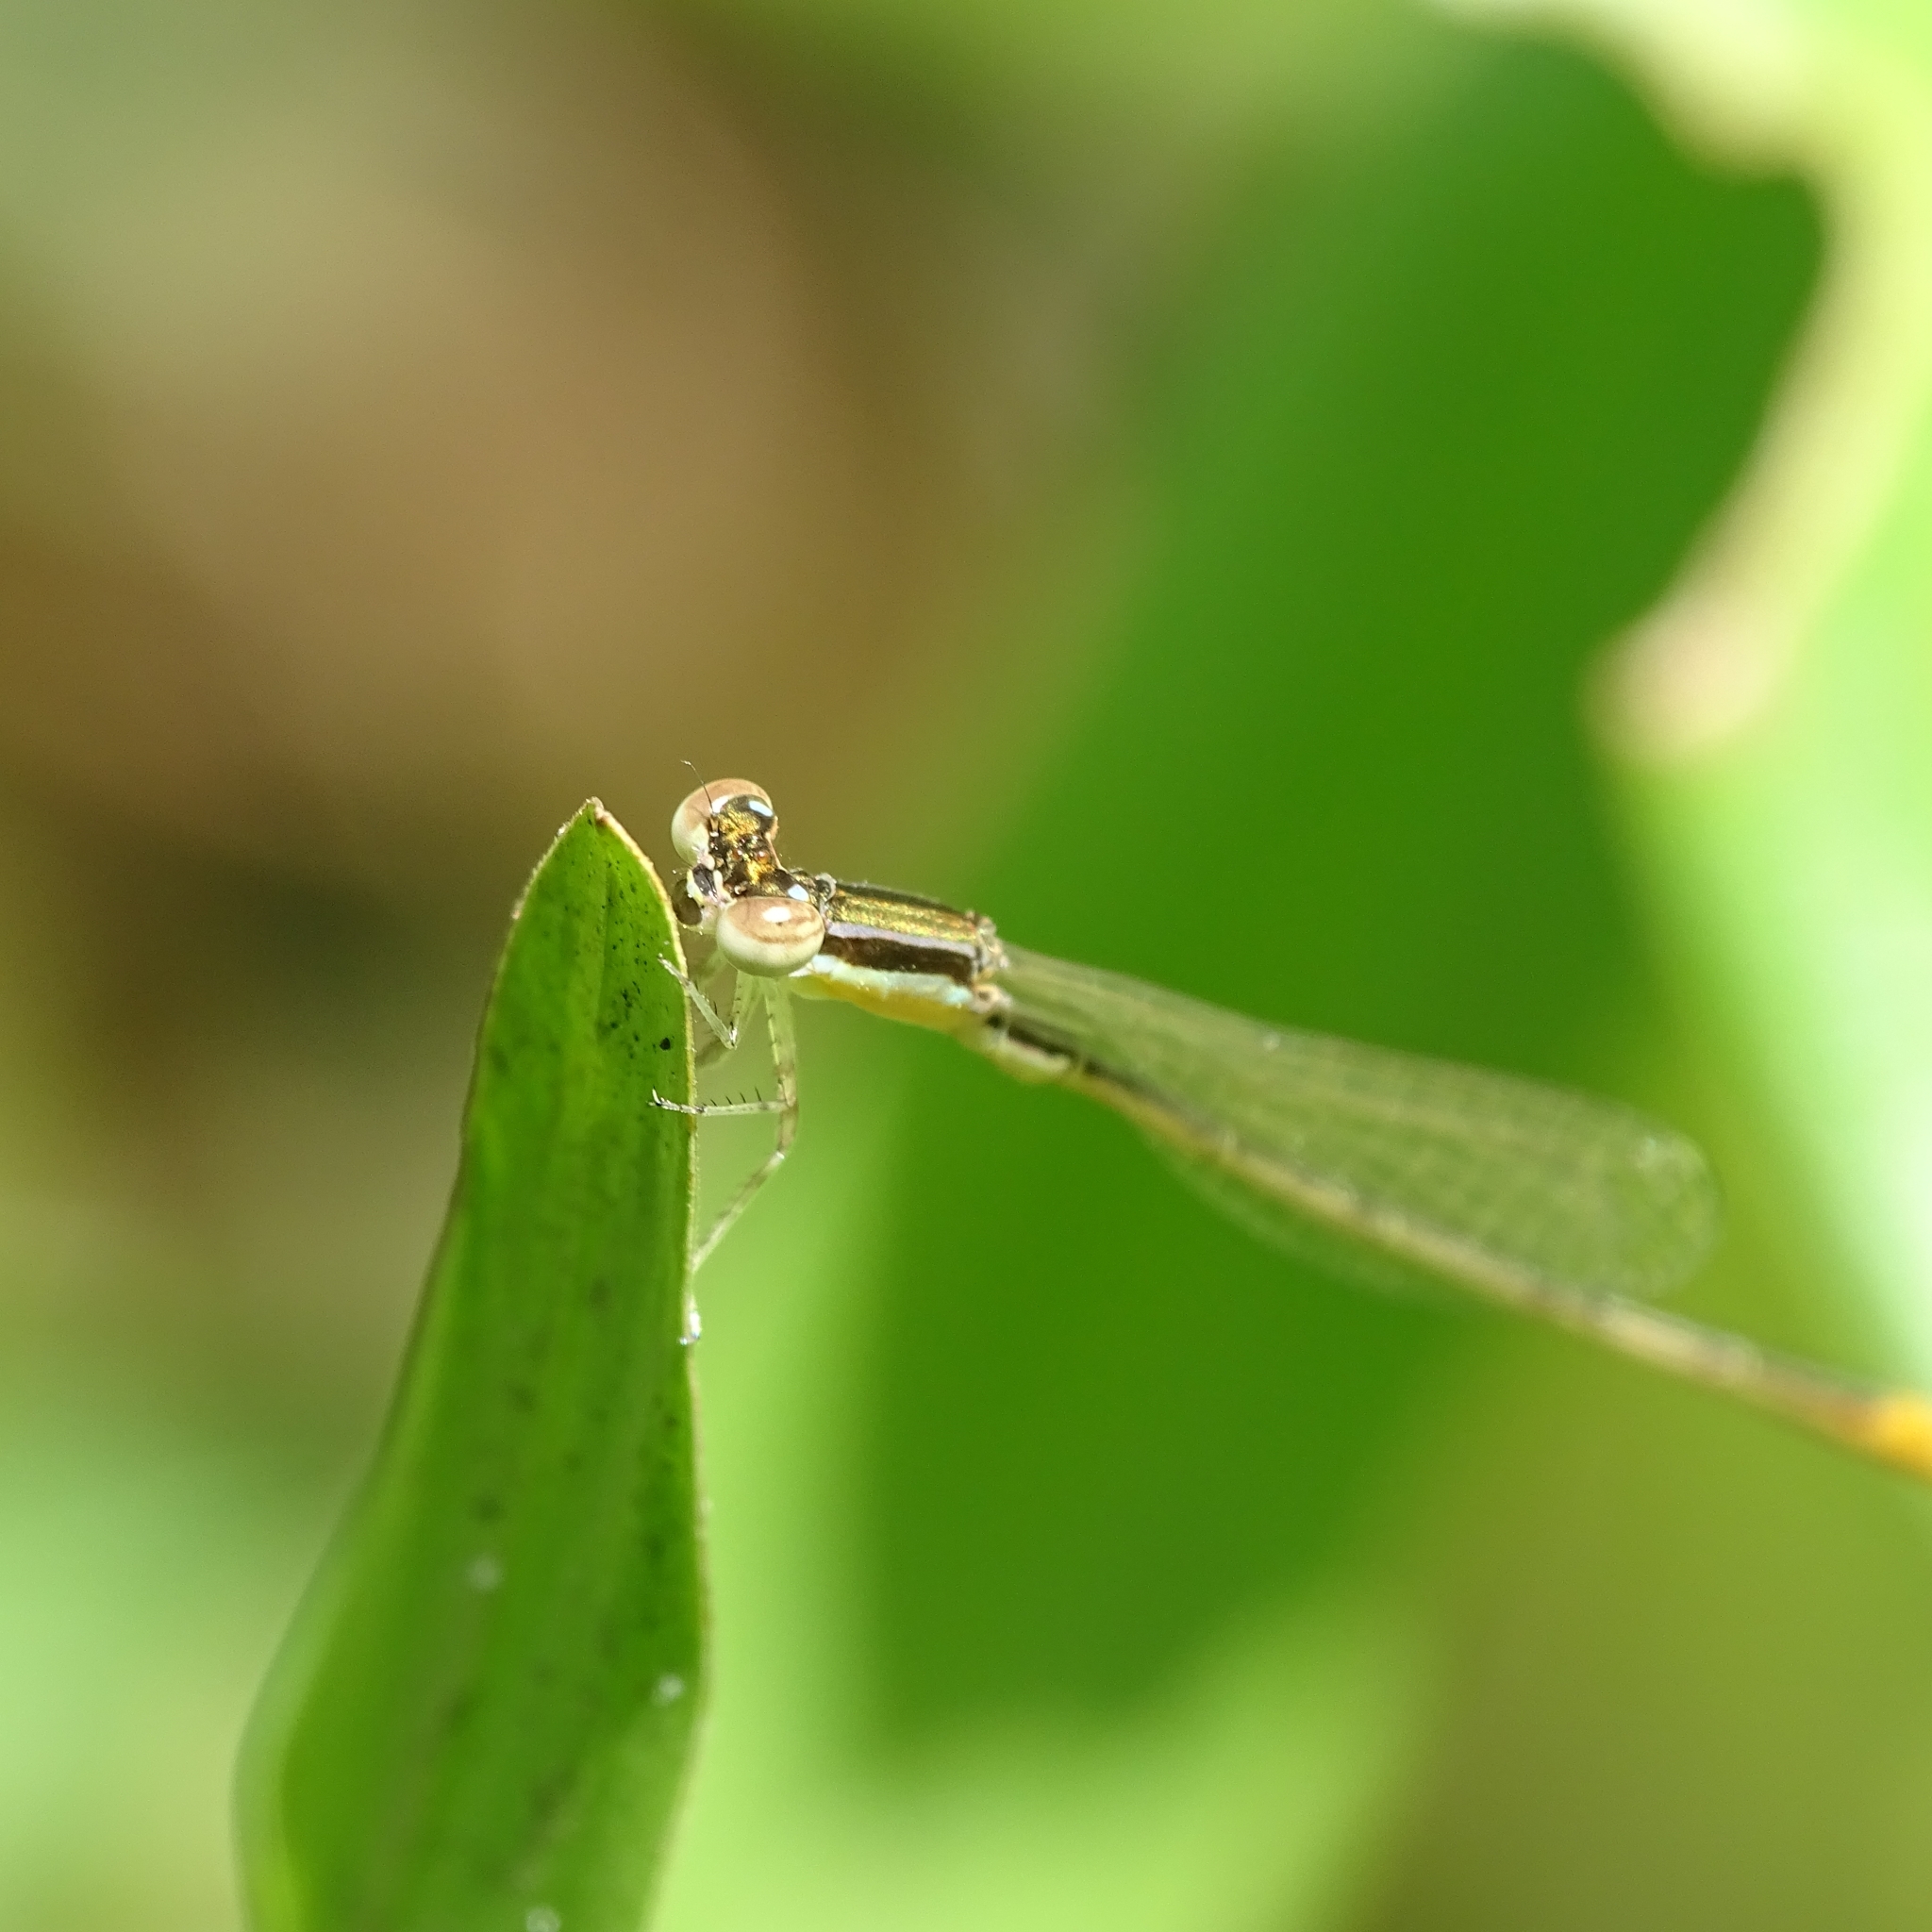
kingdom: Animalia
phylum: Arthropoda
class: Insecta
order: Odonata
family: Coenagrionidae
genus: Agriocnemis
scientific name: Agriocnemis pygmaea
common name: Pygmy wisp
